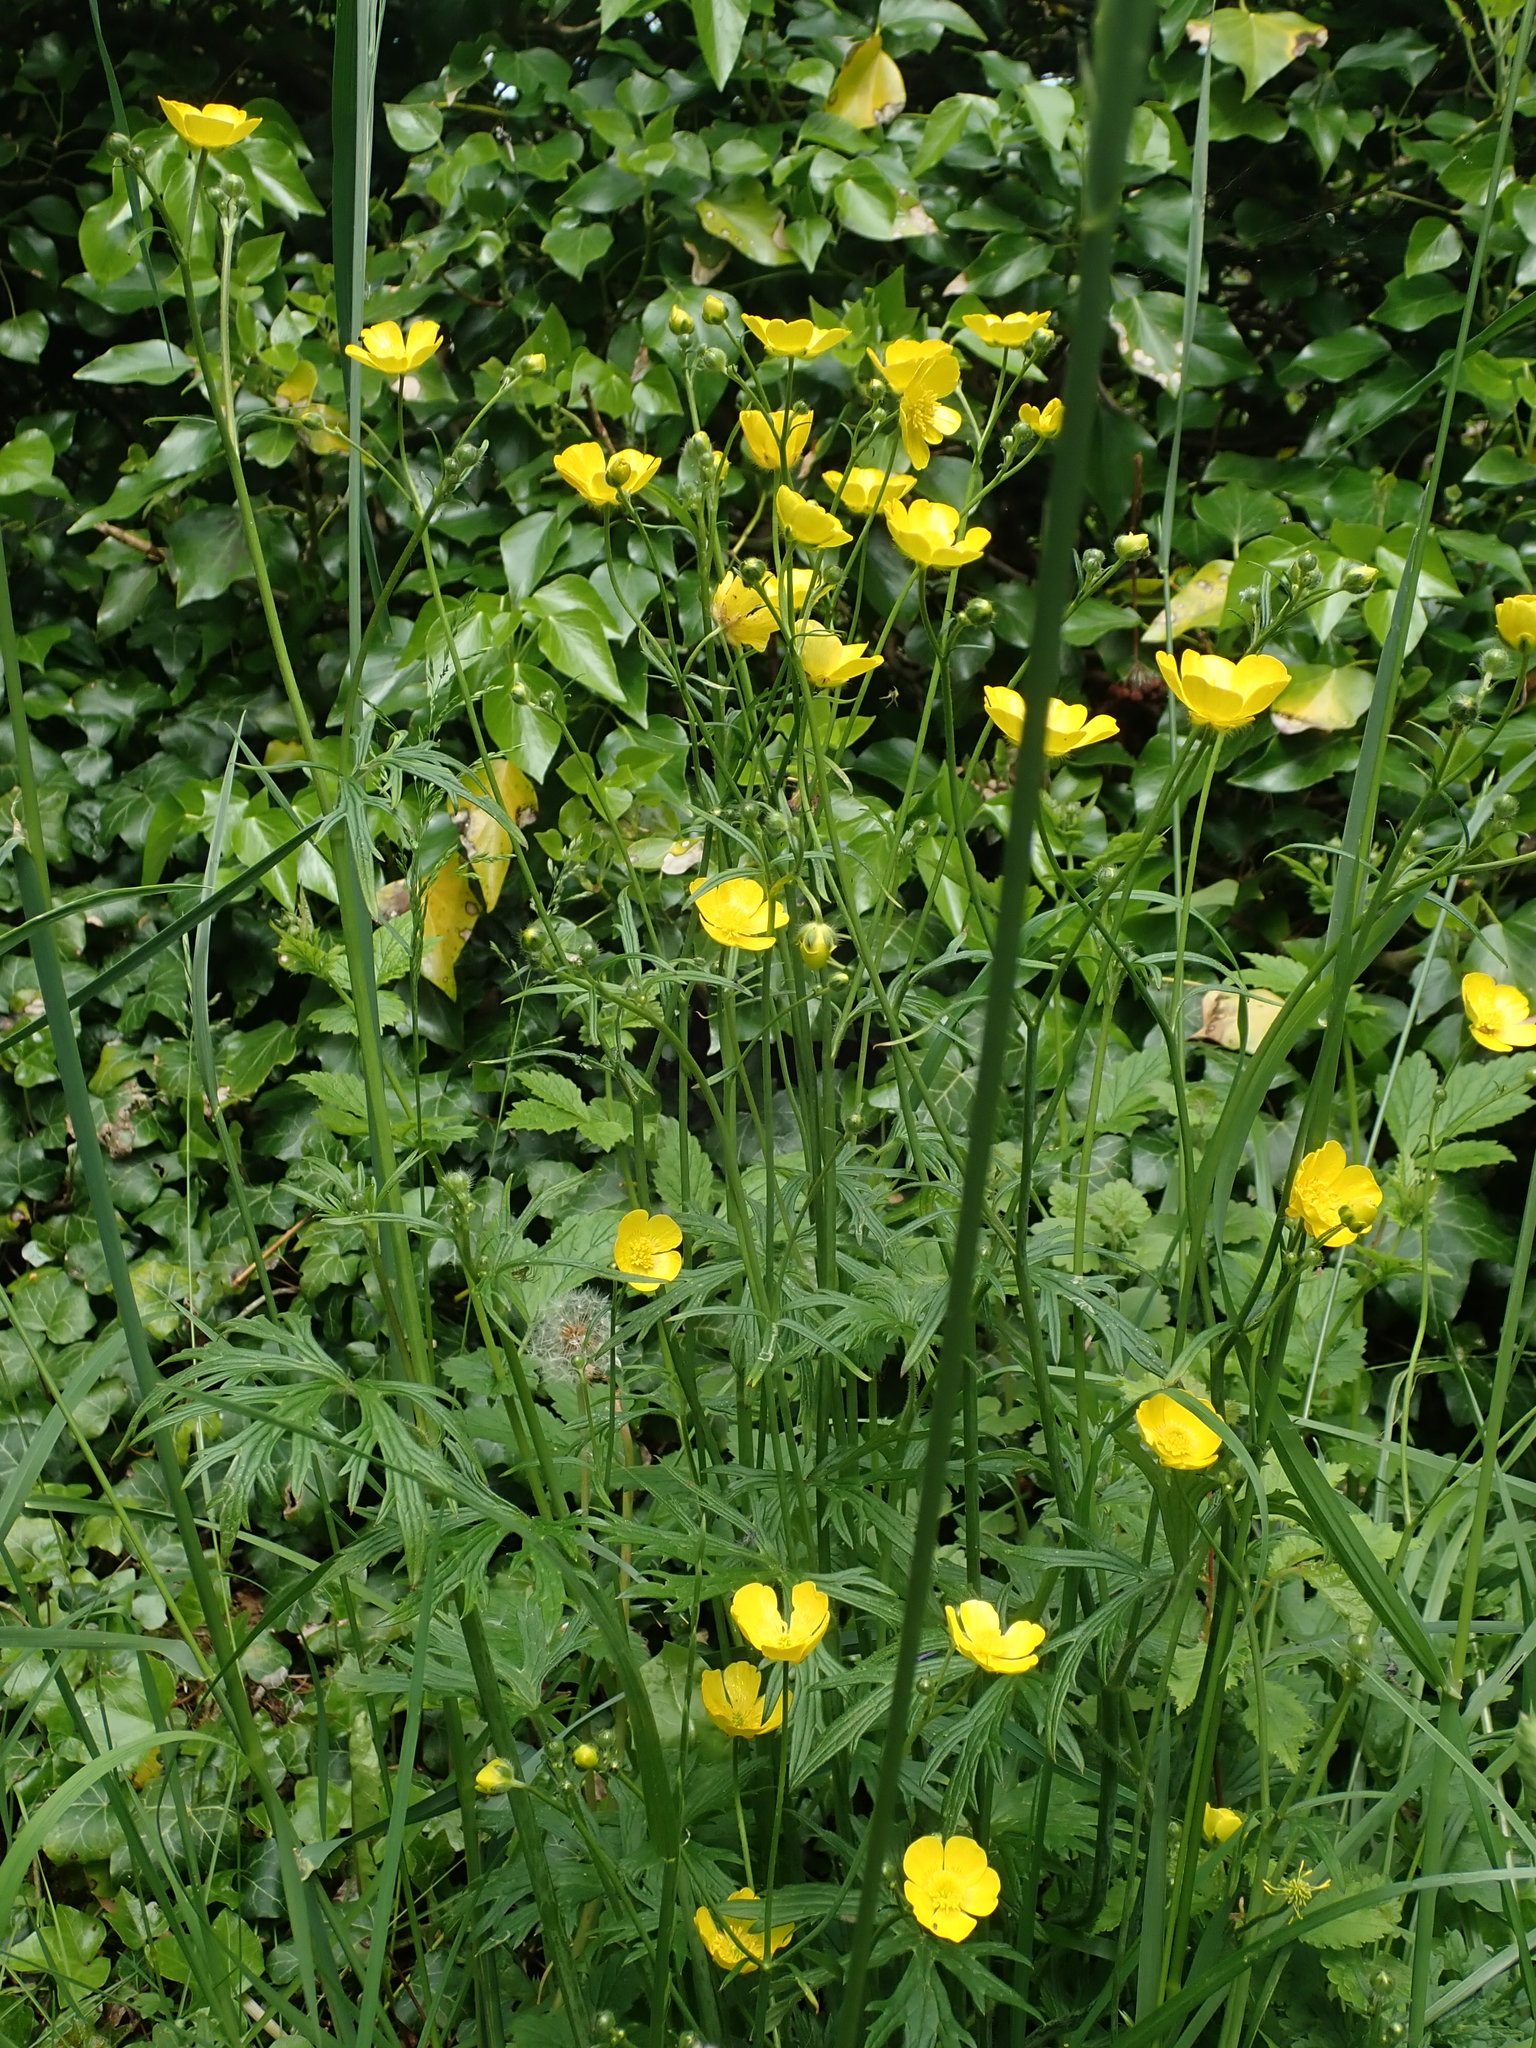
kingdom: Plantae
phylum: Tracheophyta
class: Magnoliopsida
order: Ranunculales
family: Ranunculaceae
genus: Ranunculus
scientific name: Ranunculus acris
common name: Meadow buttercup
